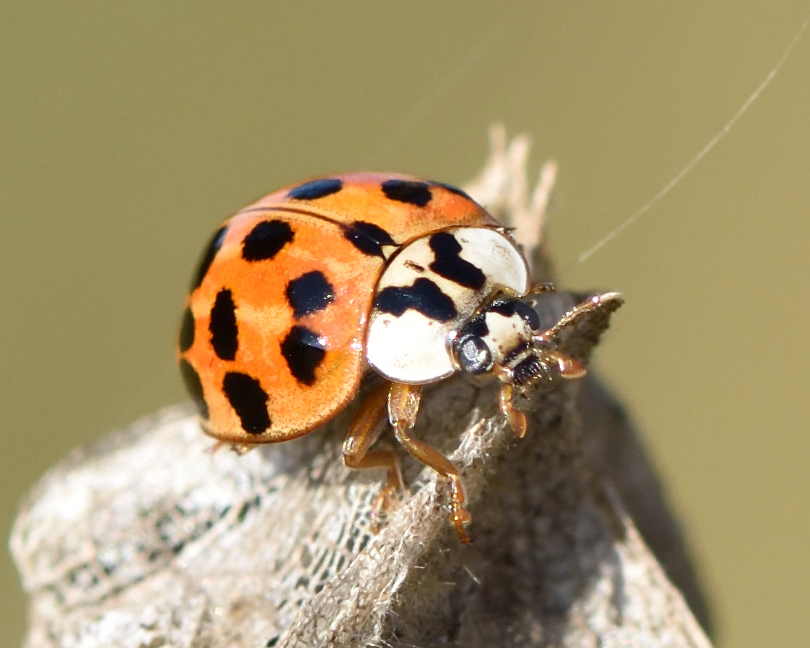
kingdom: Animalia
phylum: Arthropoda
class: Insecta
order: Coleoptera
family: Coccinellidae
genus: Harmonia
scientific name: Harmonia axyridis
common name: Harlequin ladybird
